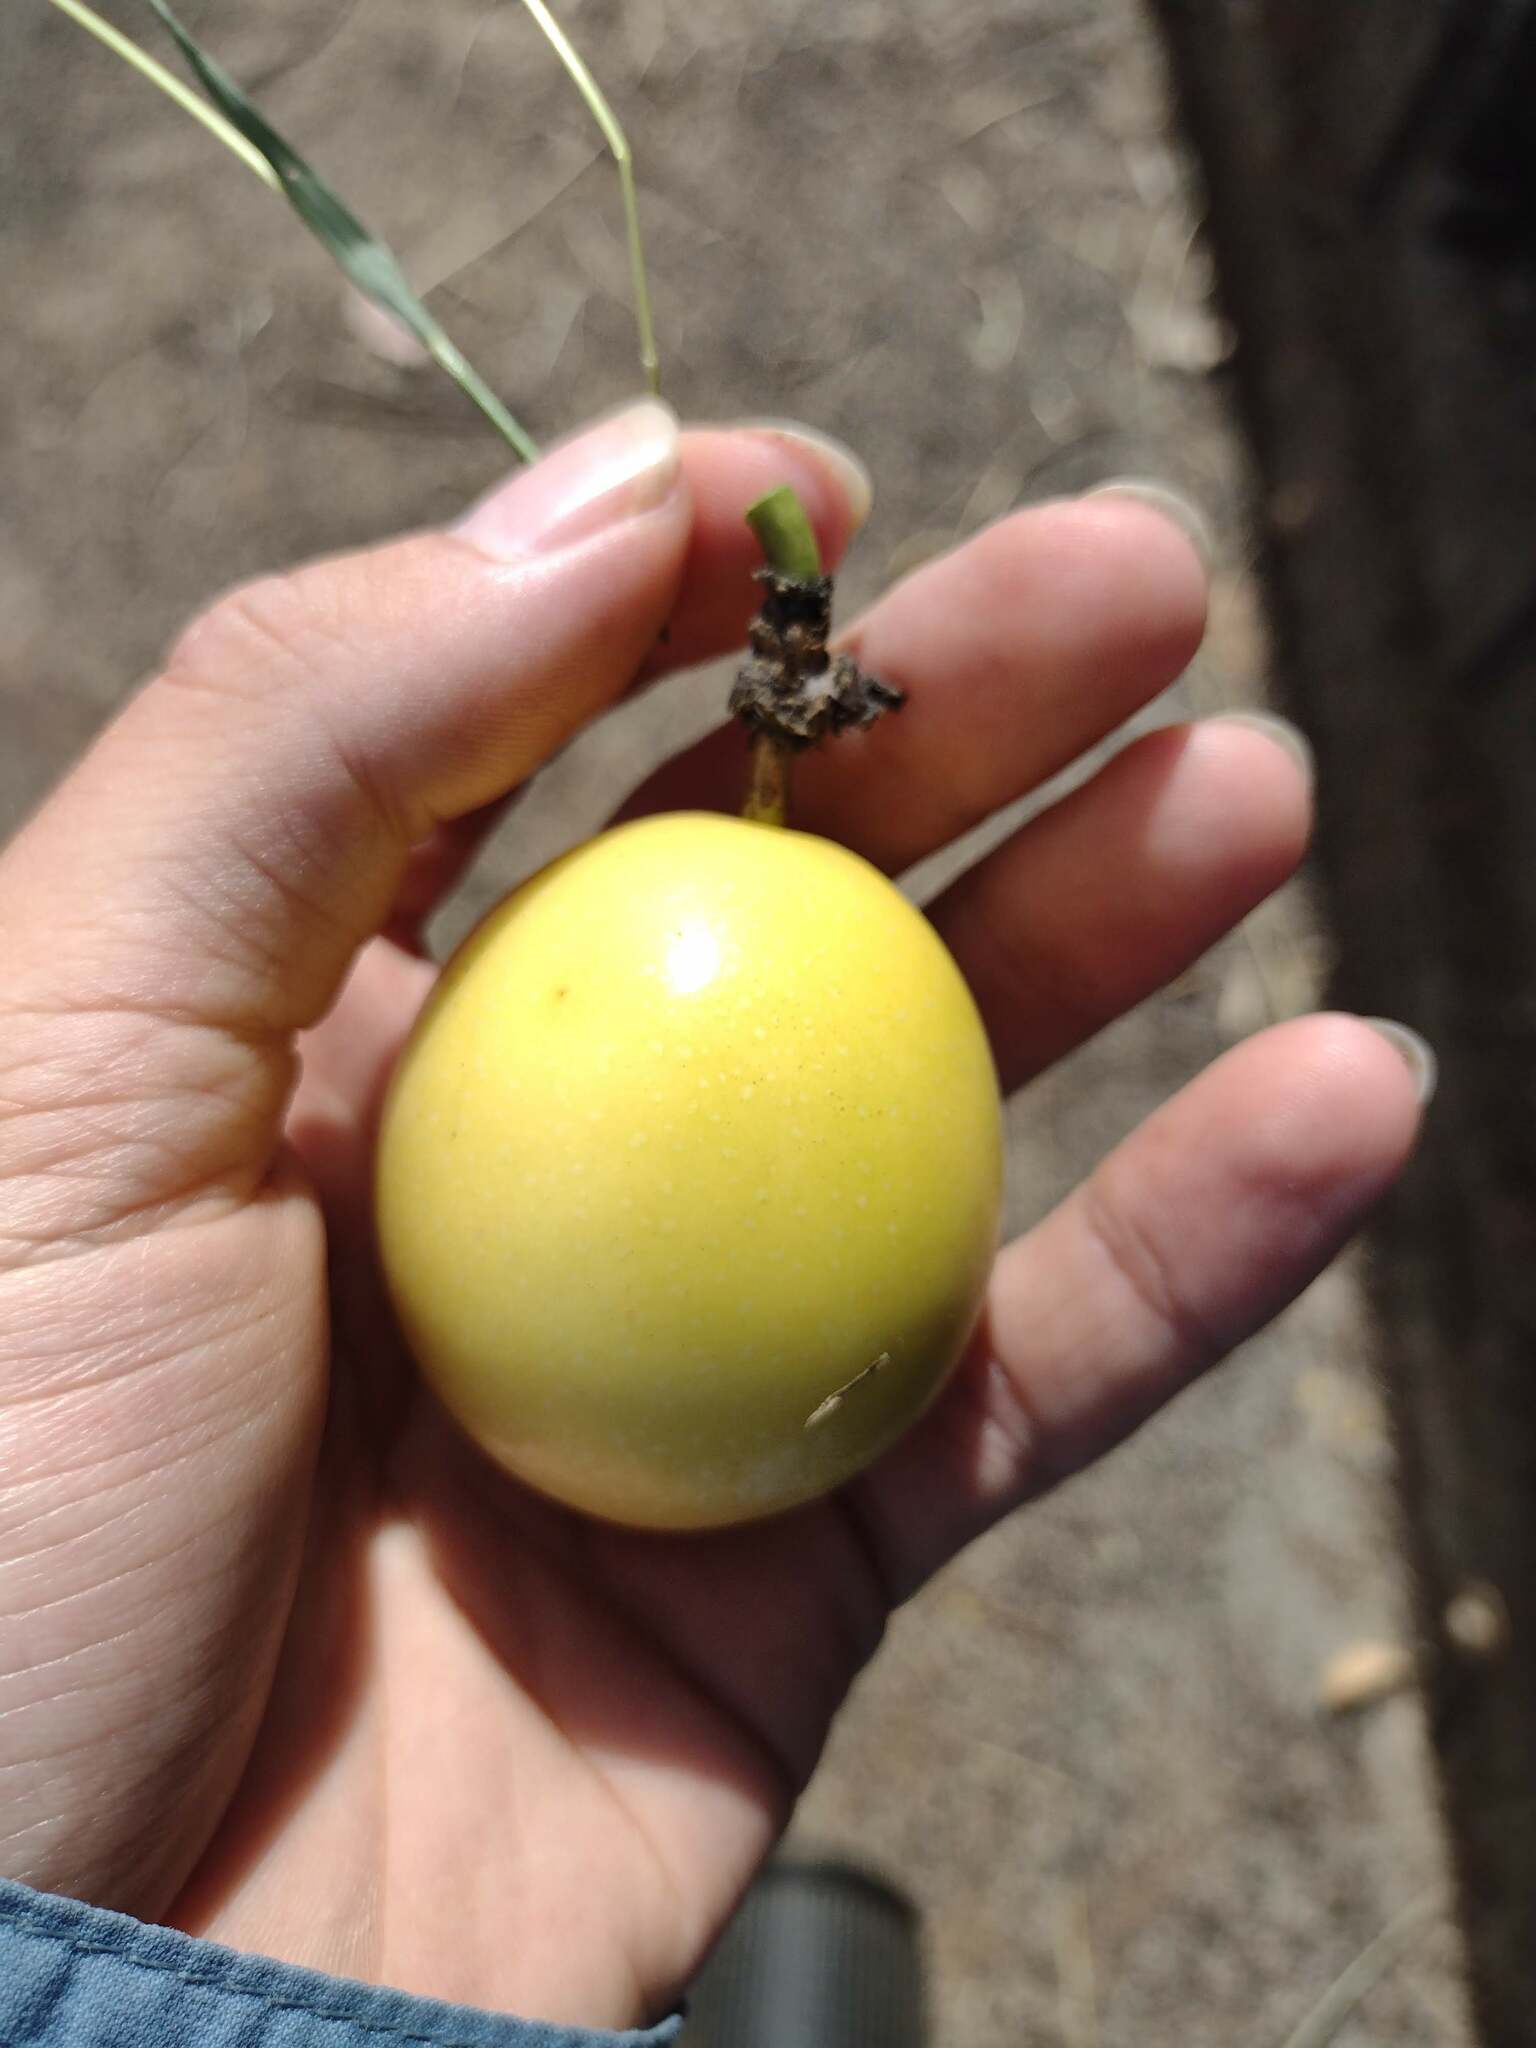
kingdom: Plantae
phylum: Tracheophyta
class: Magnoliopsida
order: Malpighiales
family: Passifloraceae
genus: Passiflora
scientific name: Passiflora edulis
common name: Purple granadilla
